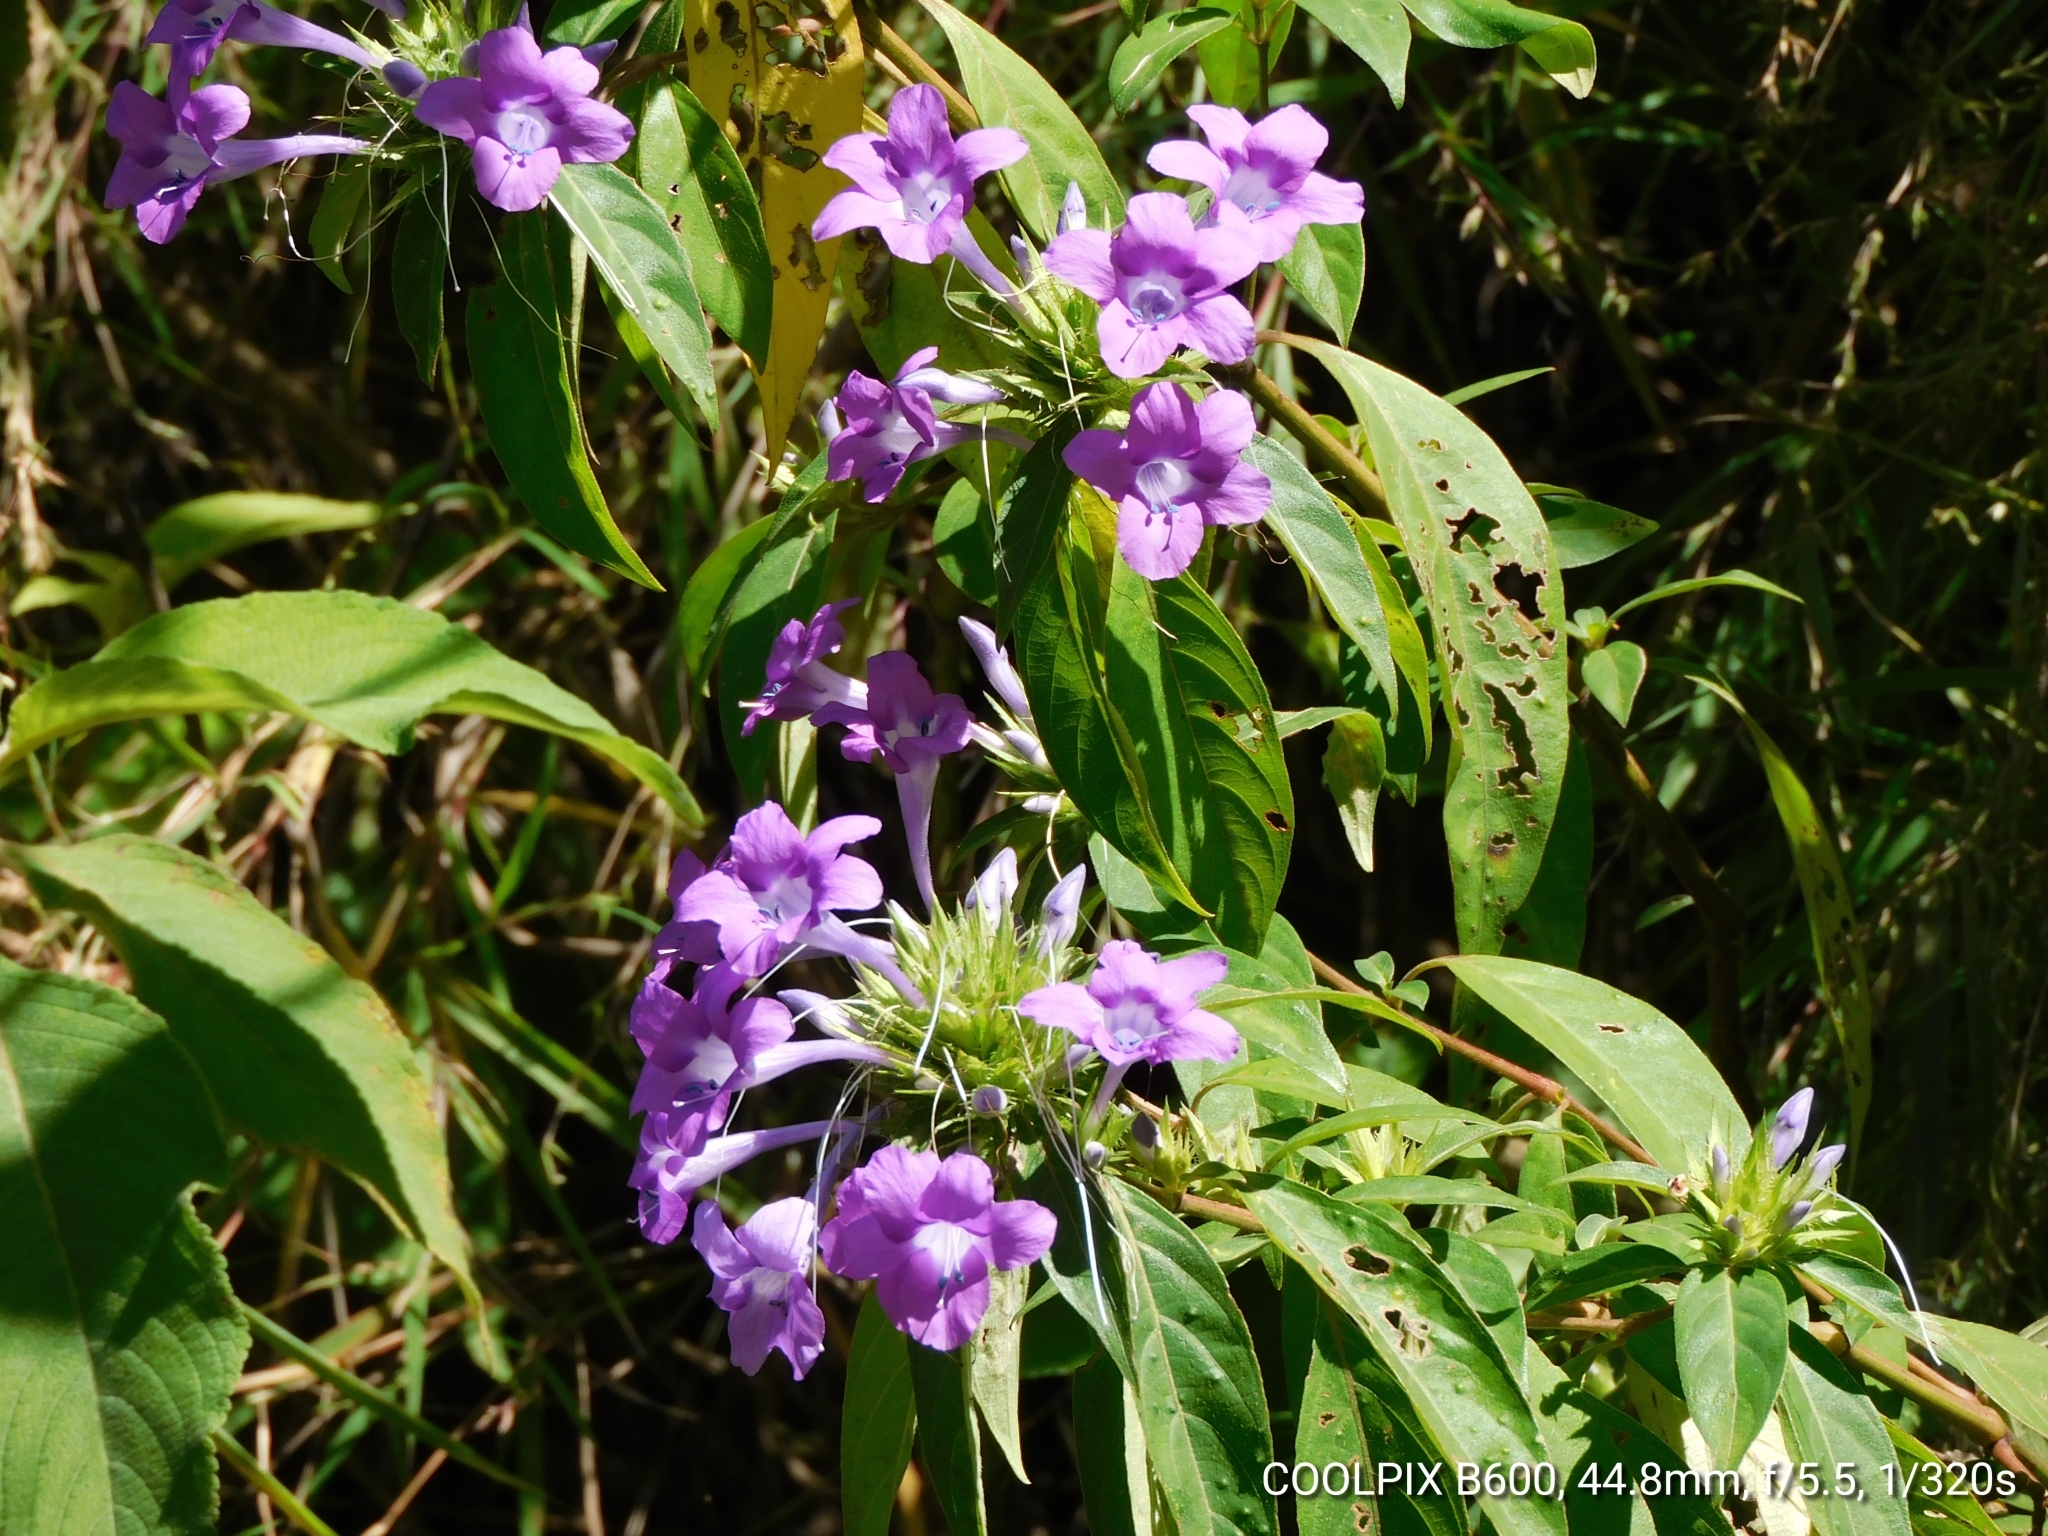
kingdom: Plantae
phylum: Tracheophyta
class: Magnoliopsida
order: Lamiales
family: Acanthaceae
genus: Barleria
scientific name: Barleria cristata
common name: Crested philippine violet
